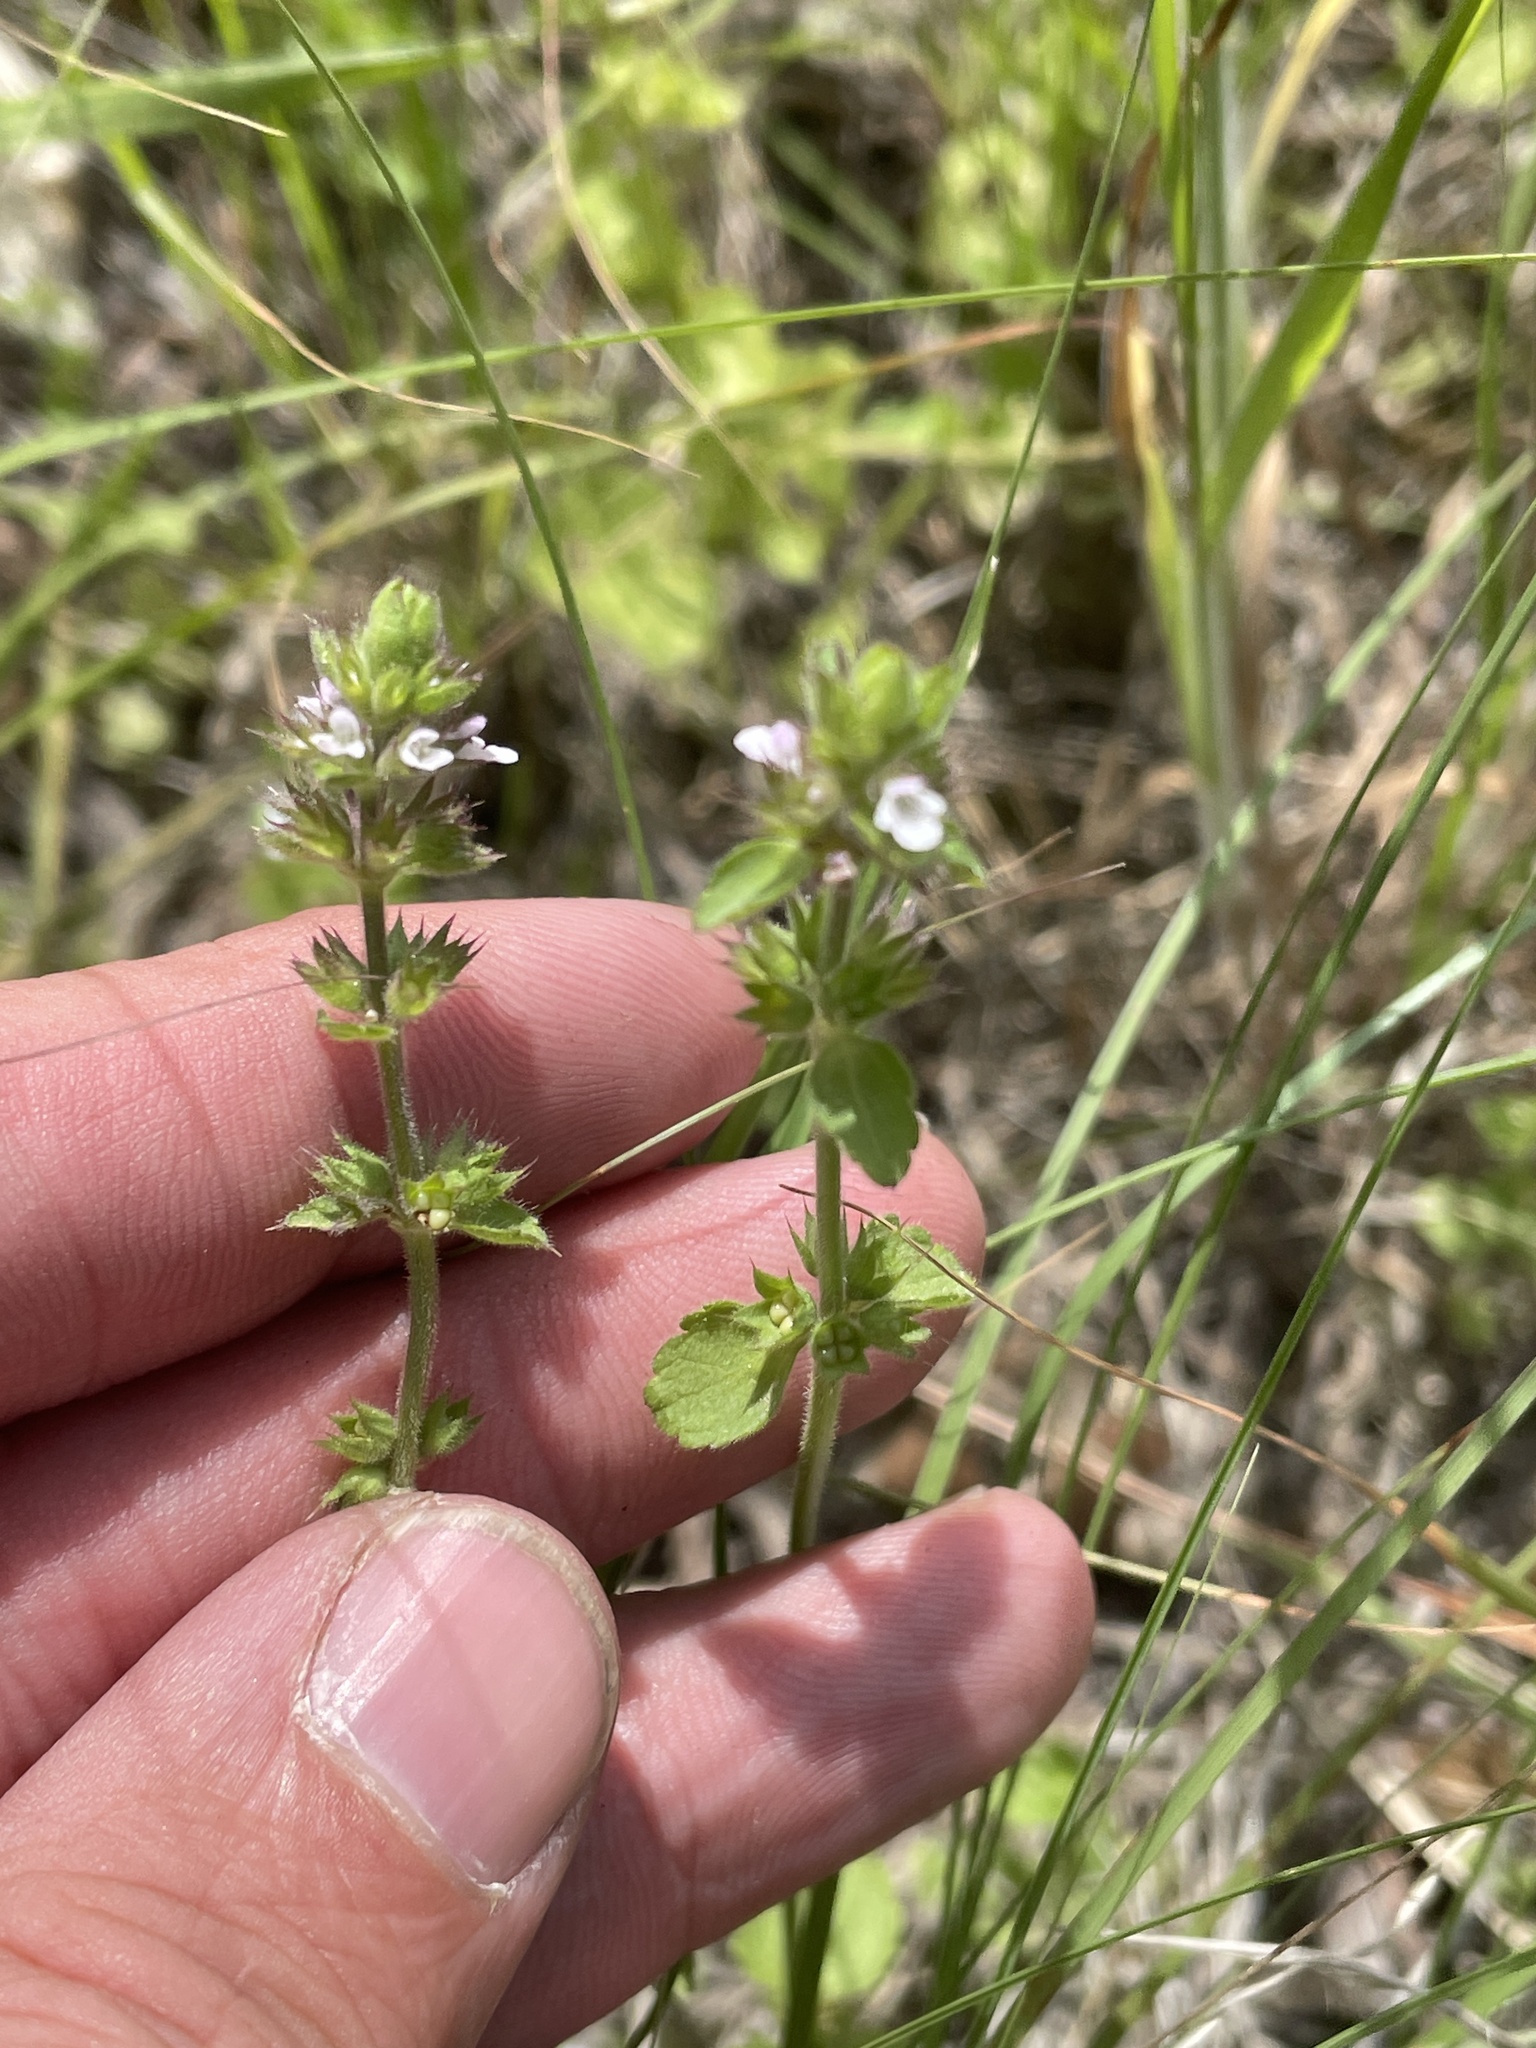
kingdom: Plantae
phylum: Tracheophyta
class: Magnoliopsida
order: Lamiales
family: Lamiaceae
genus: Stachys
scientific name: Stachys
